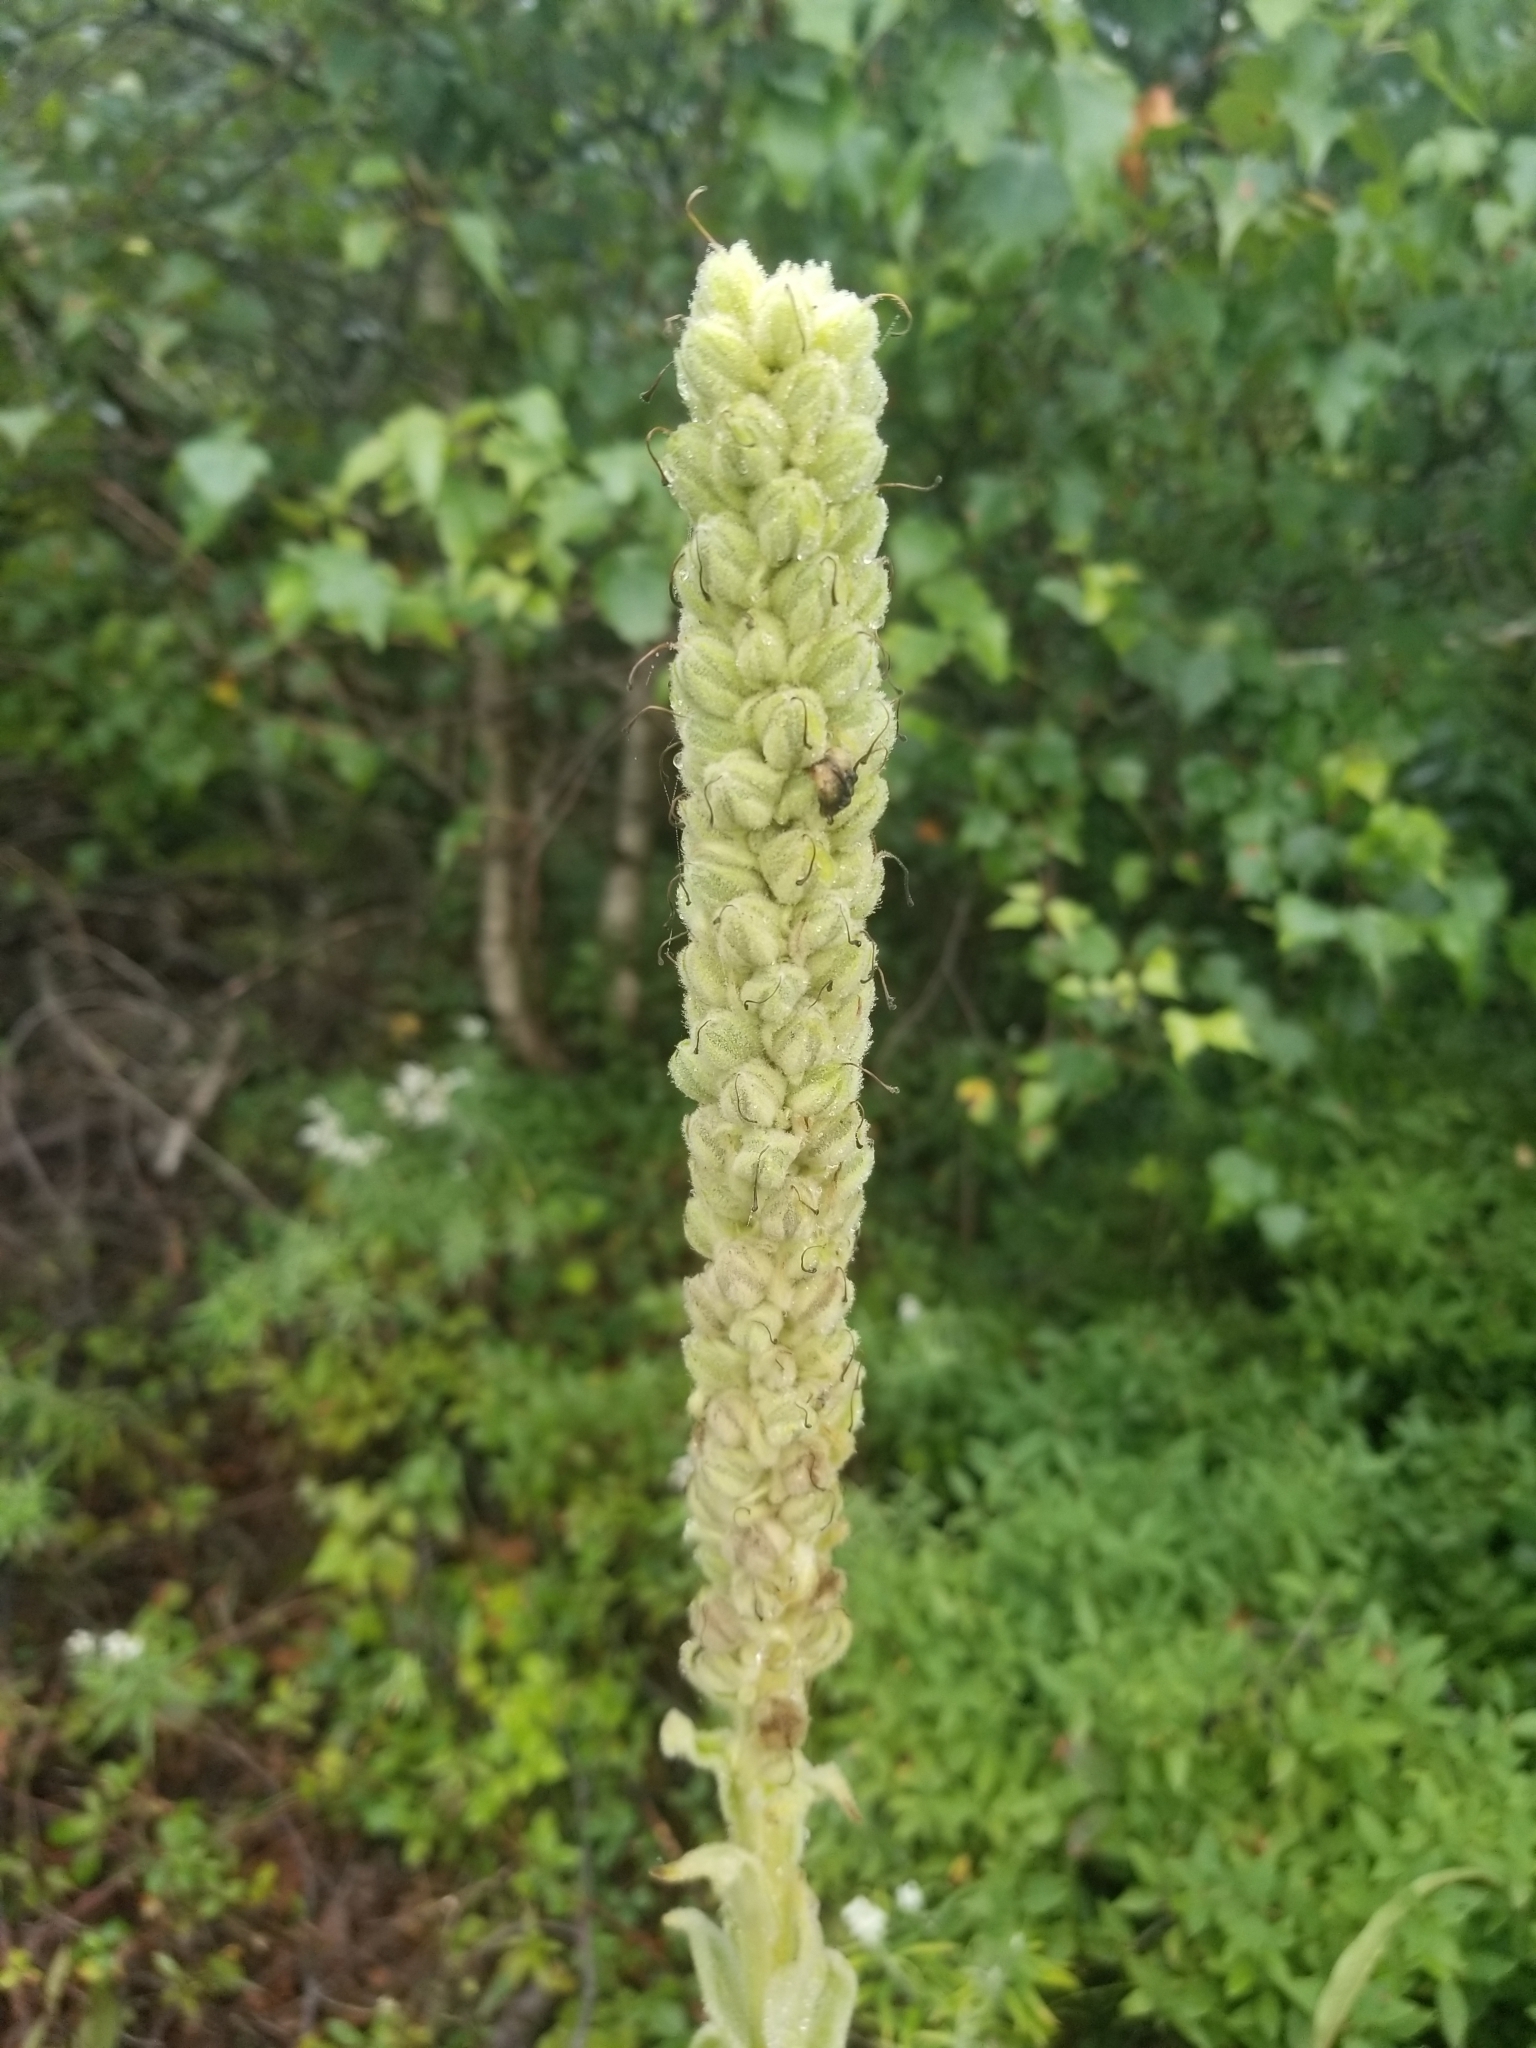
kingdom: Plantae
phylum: Tracheophyta
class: Magnoliopsida
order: Lamiales
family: Scrophulariaceae
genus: Verbascum
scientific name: Verbascum thapsus
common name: Common mullein
